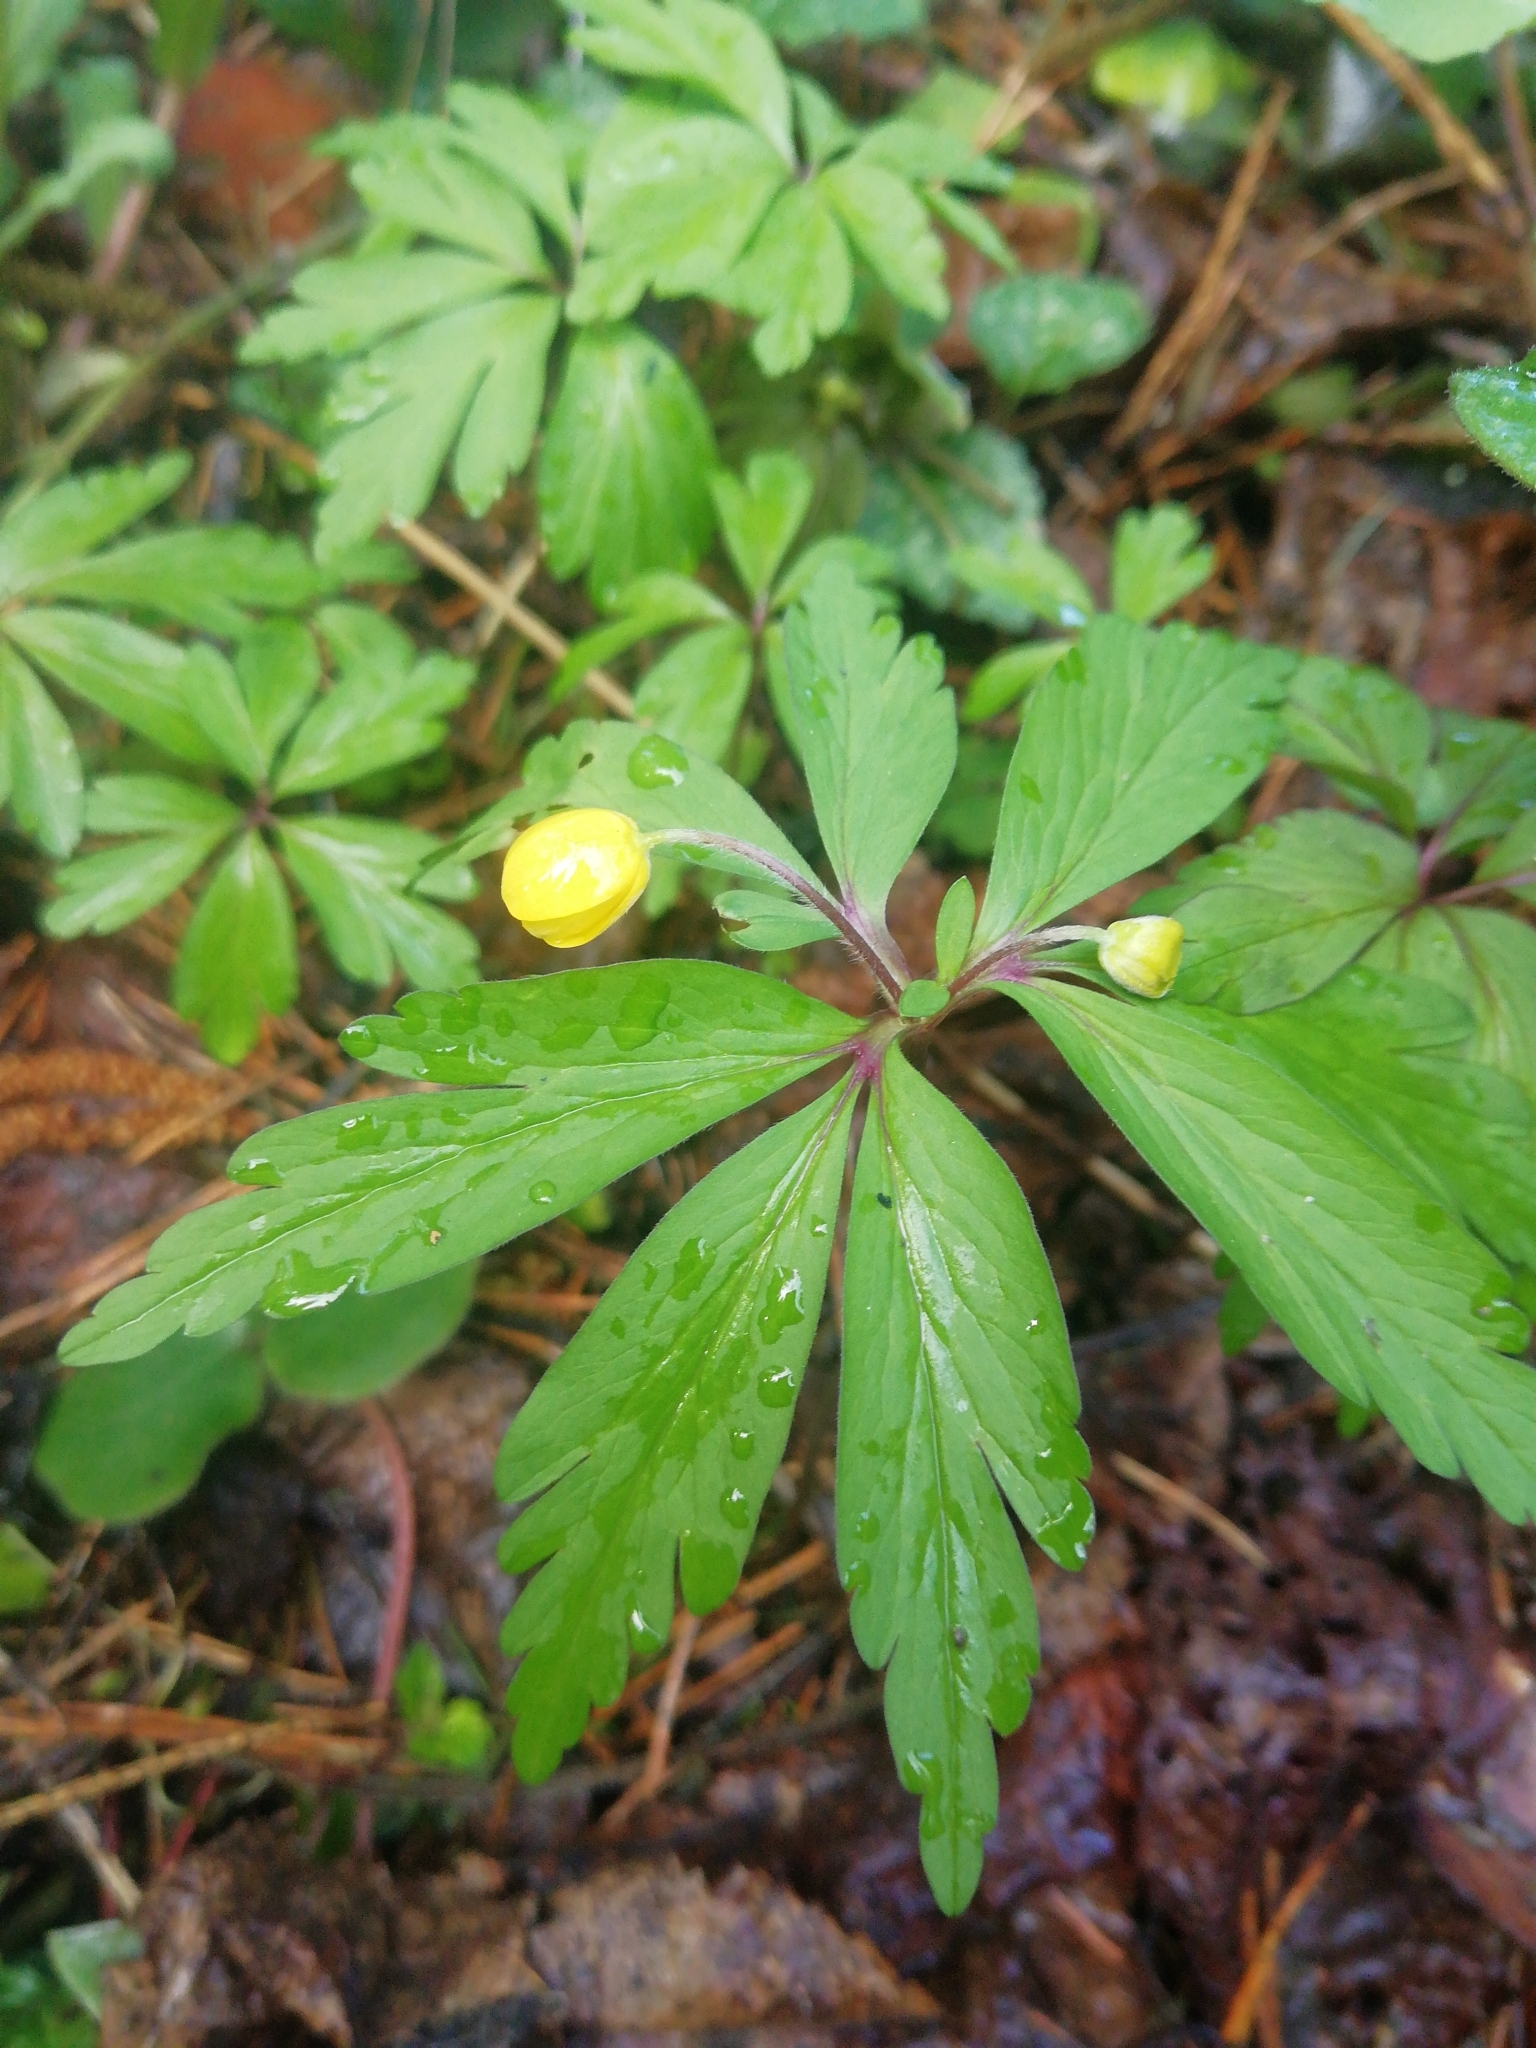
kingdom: Plantae
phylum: Tracheophyta
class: Magnoliopsida
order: Ranunculales
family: Ranunculaceae
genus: Anemone
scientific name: Anemone ranunculoides
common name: Yellow anemone
